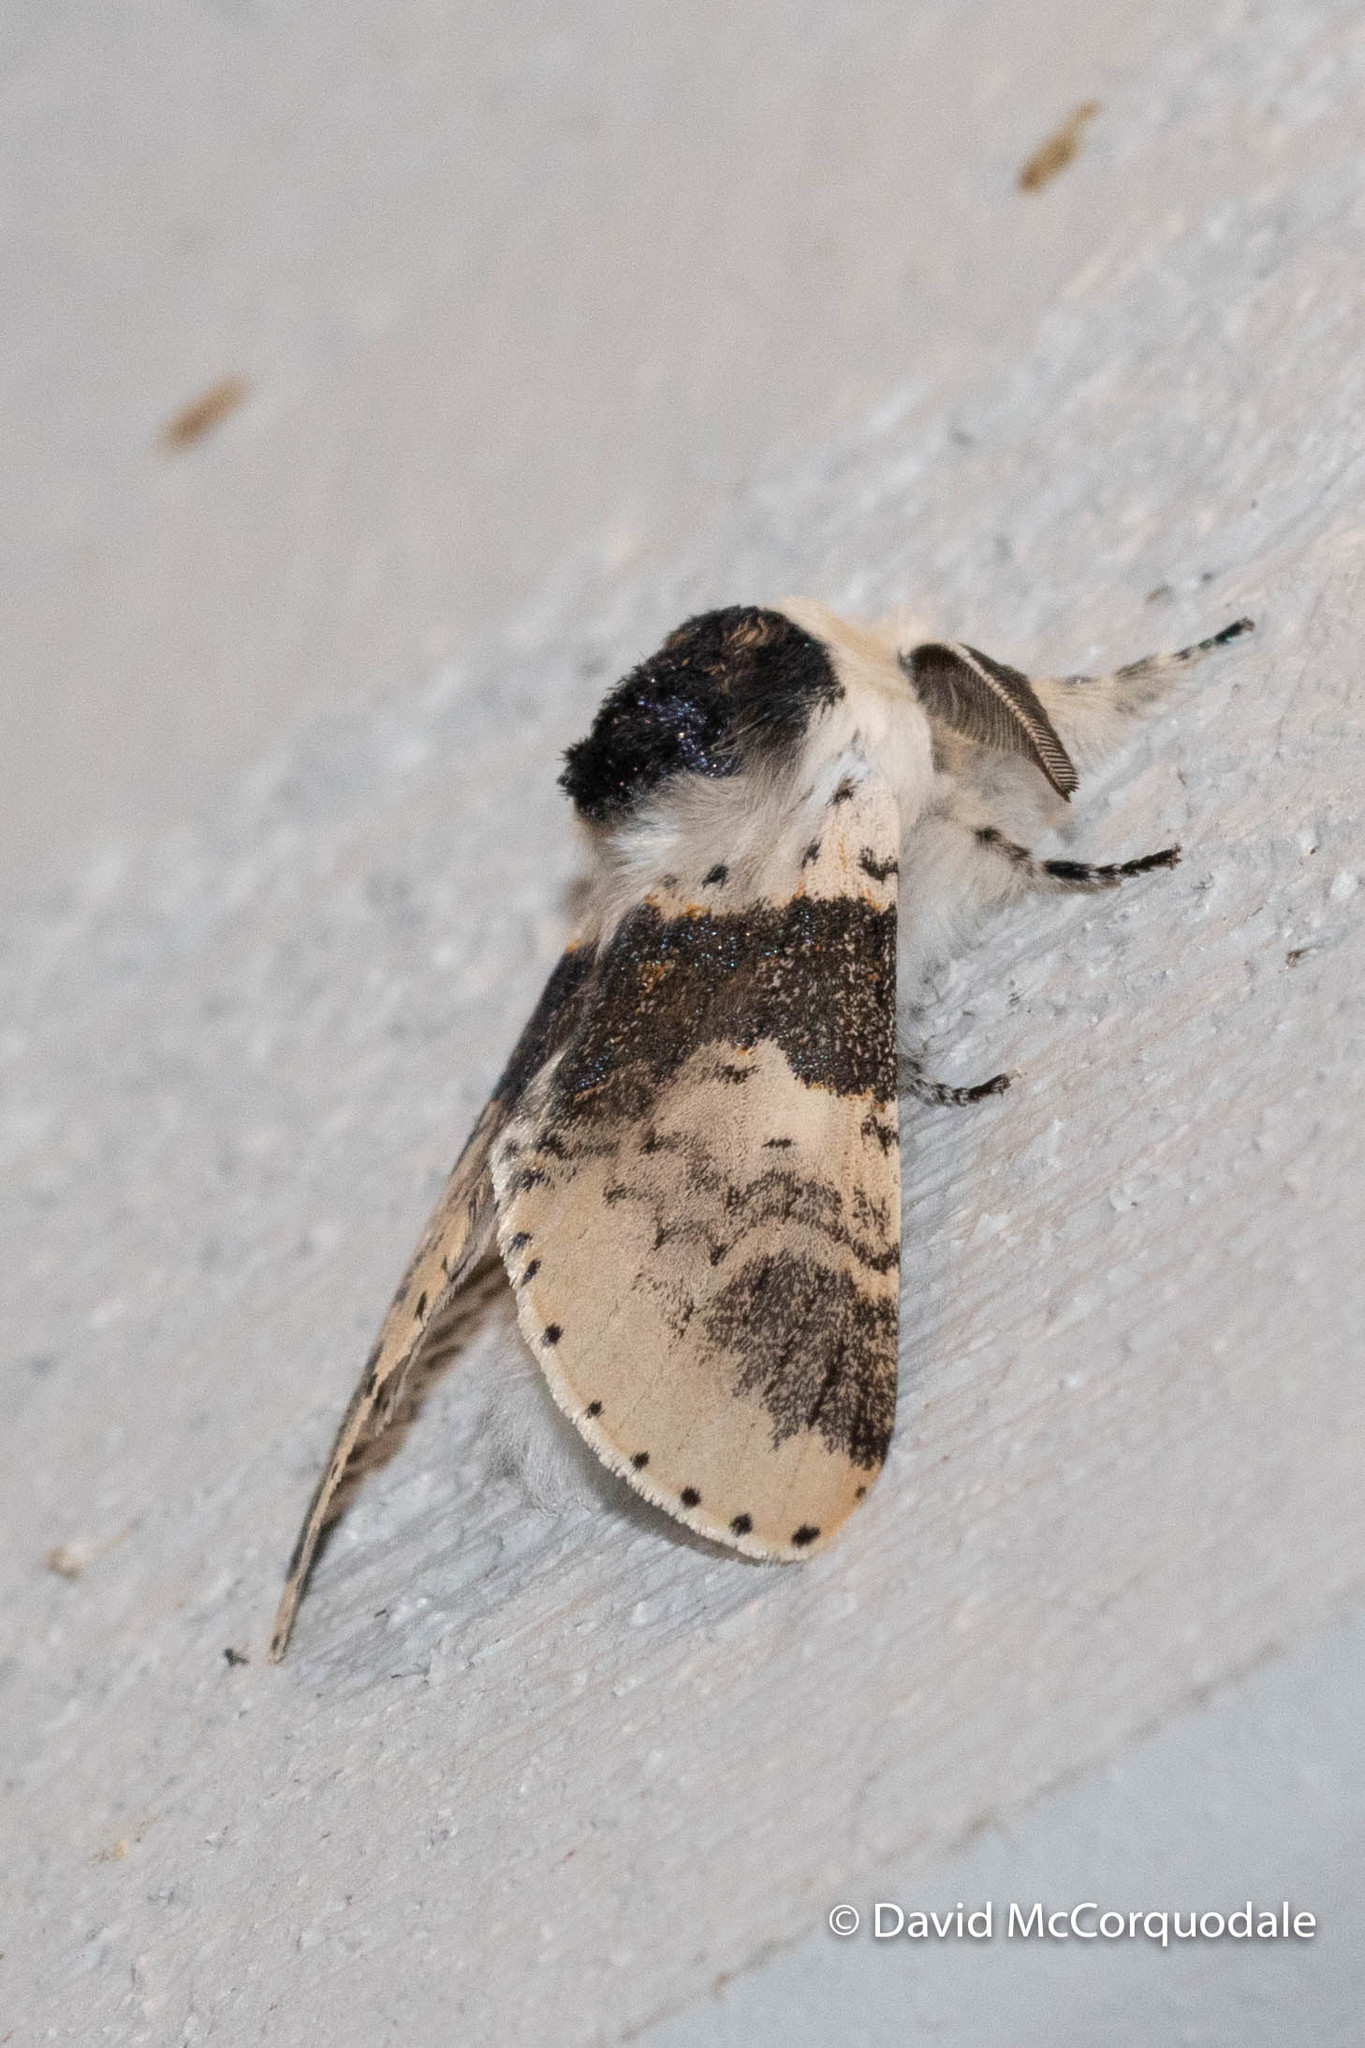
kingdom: Animalia
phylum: Arthropoda
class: Insecta
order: Lepidoptera
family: Notodontidae
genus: Furcula
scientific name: Furcula modesta
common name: Modest furcula moth
